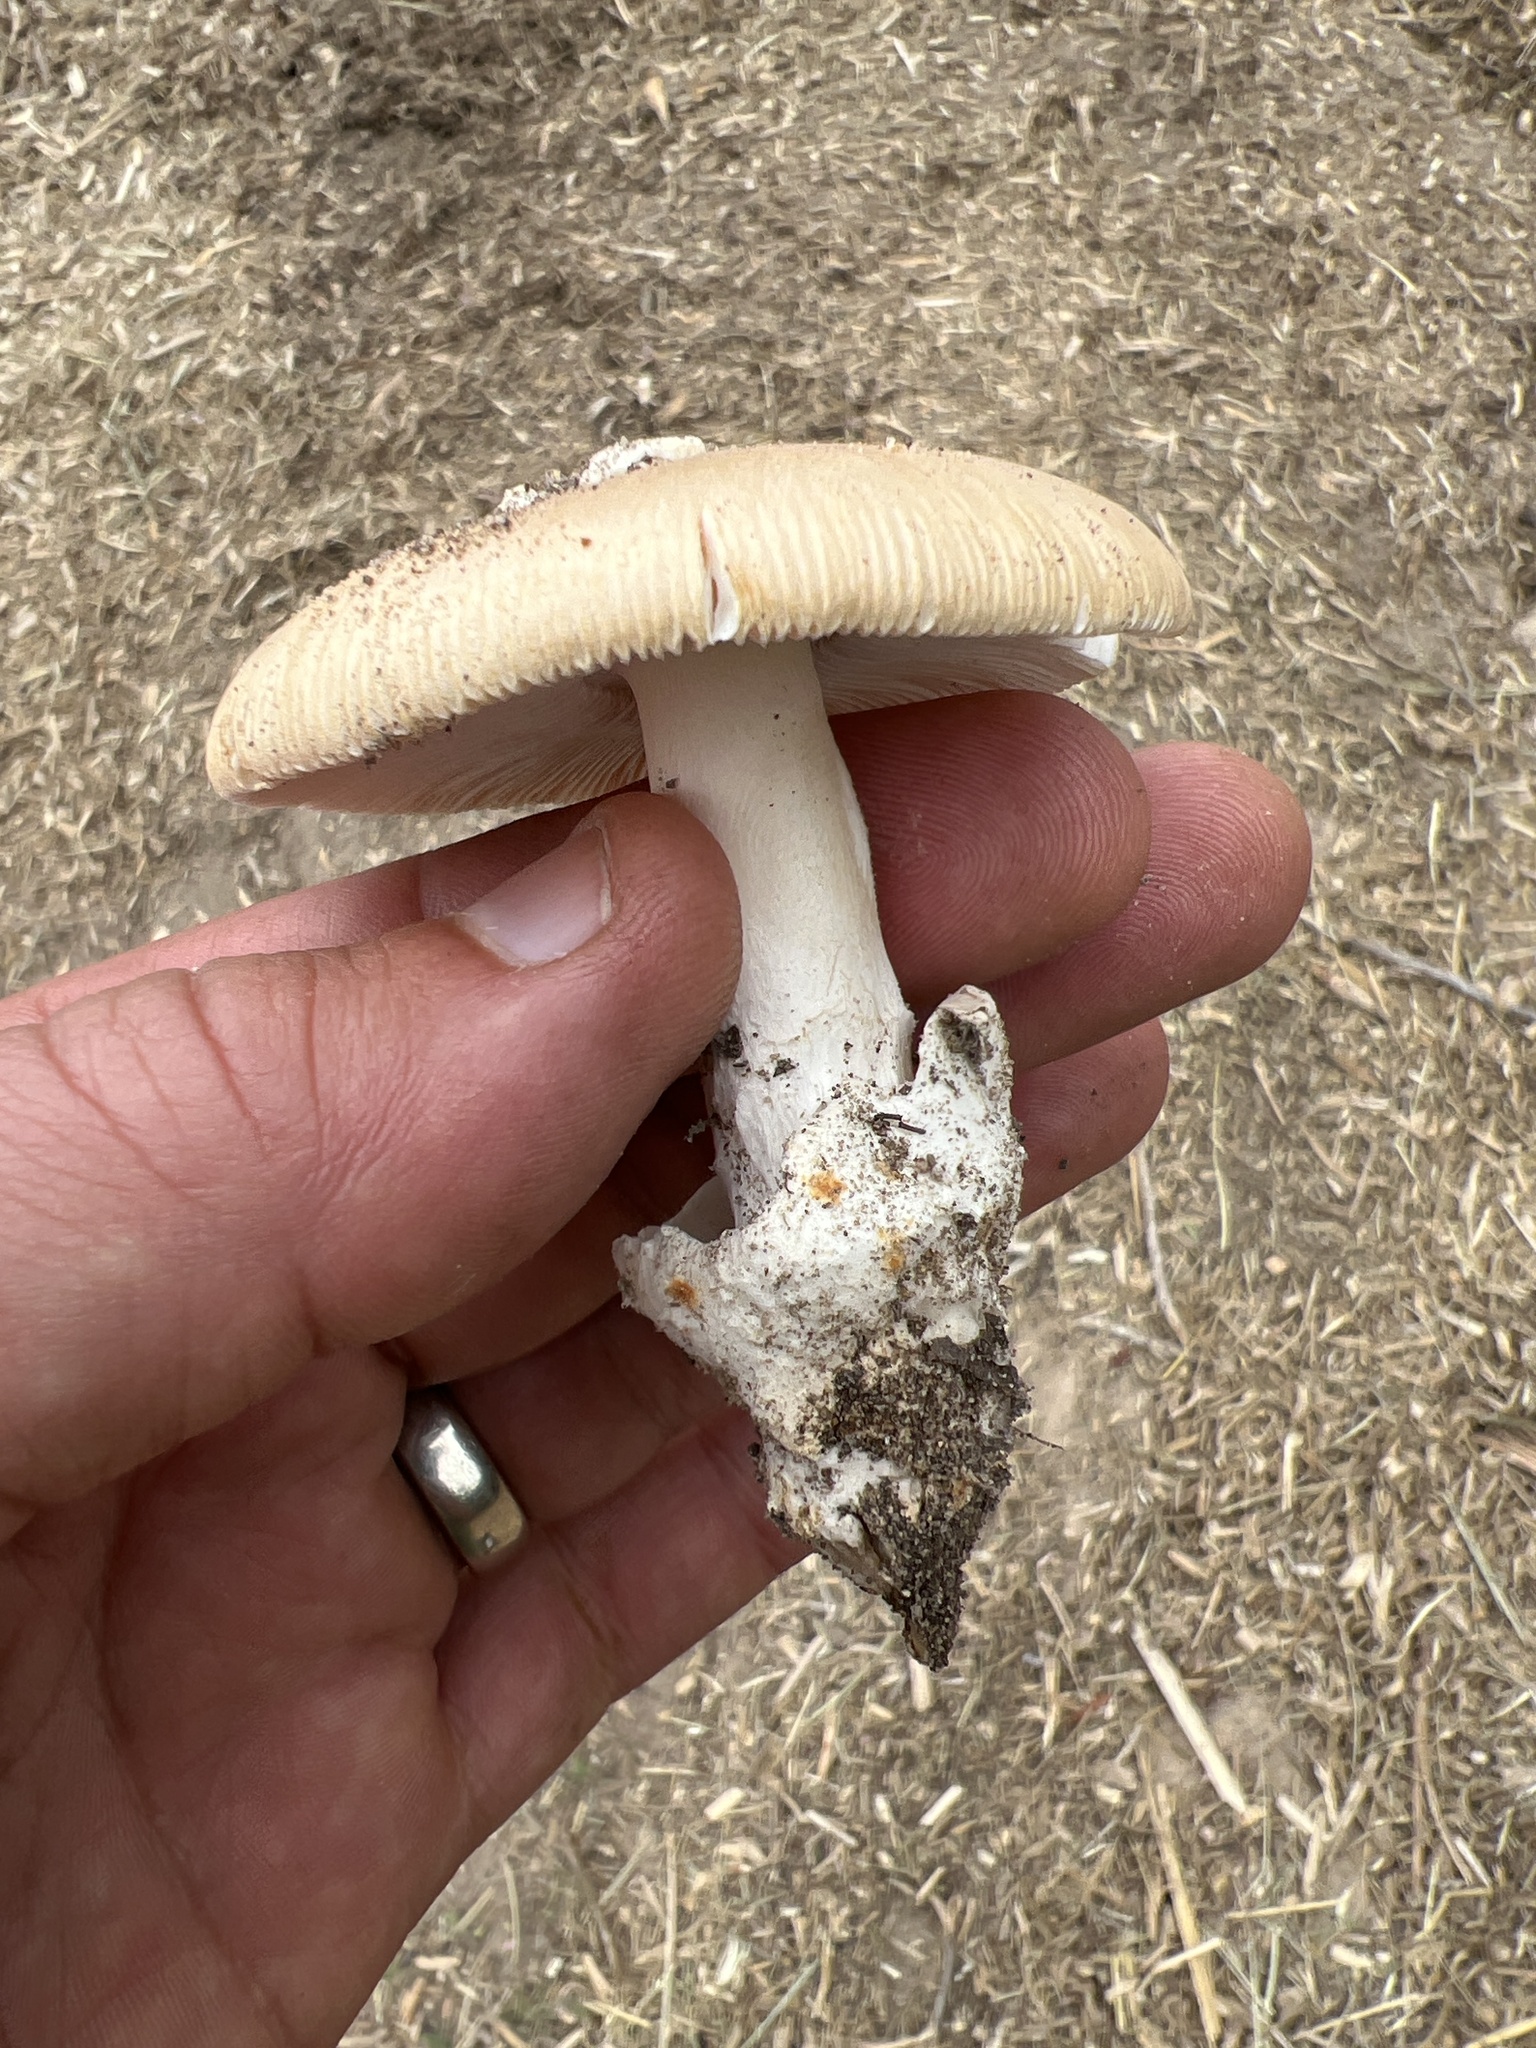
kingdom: Fungi
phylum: Basidiomycota
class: Agaricomycetes
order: Agaricales
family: Amanitaceae
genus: Amanita
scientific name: Amanita velosa
